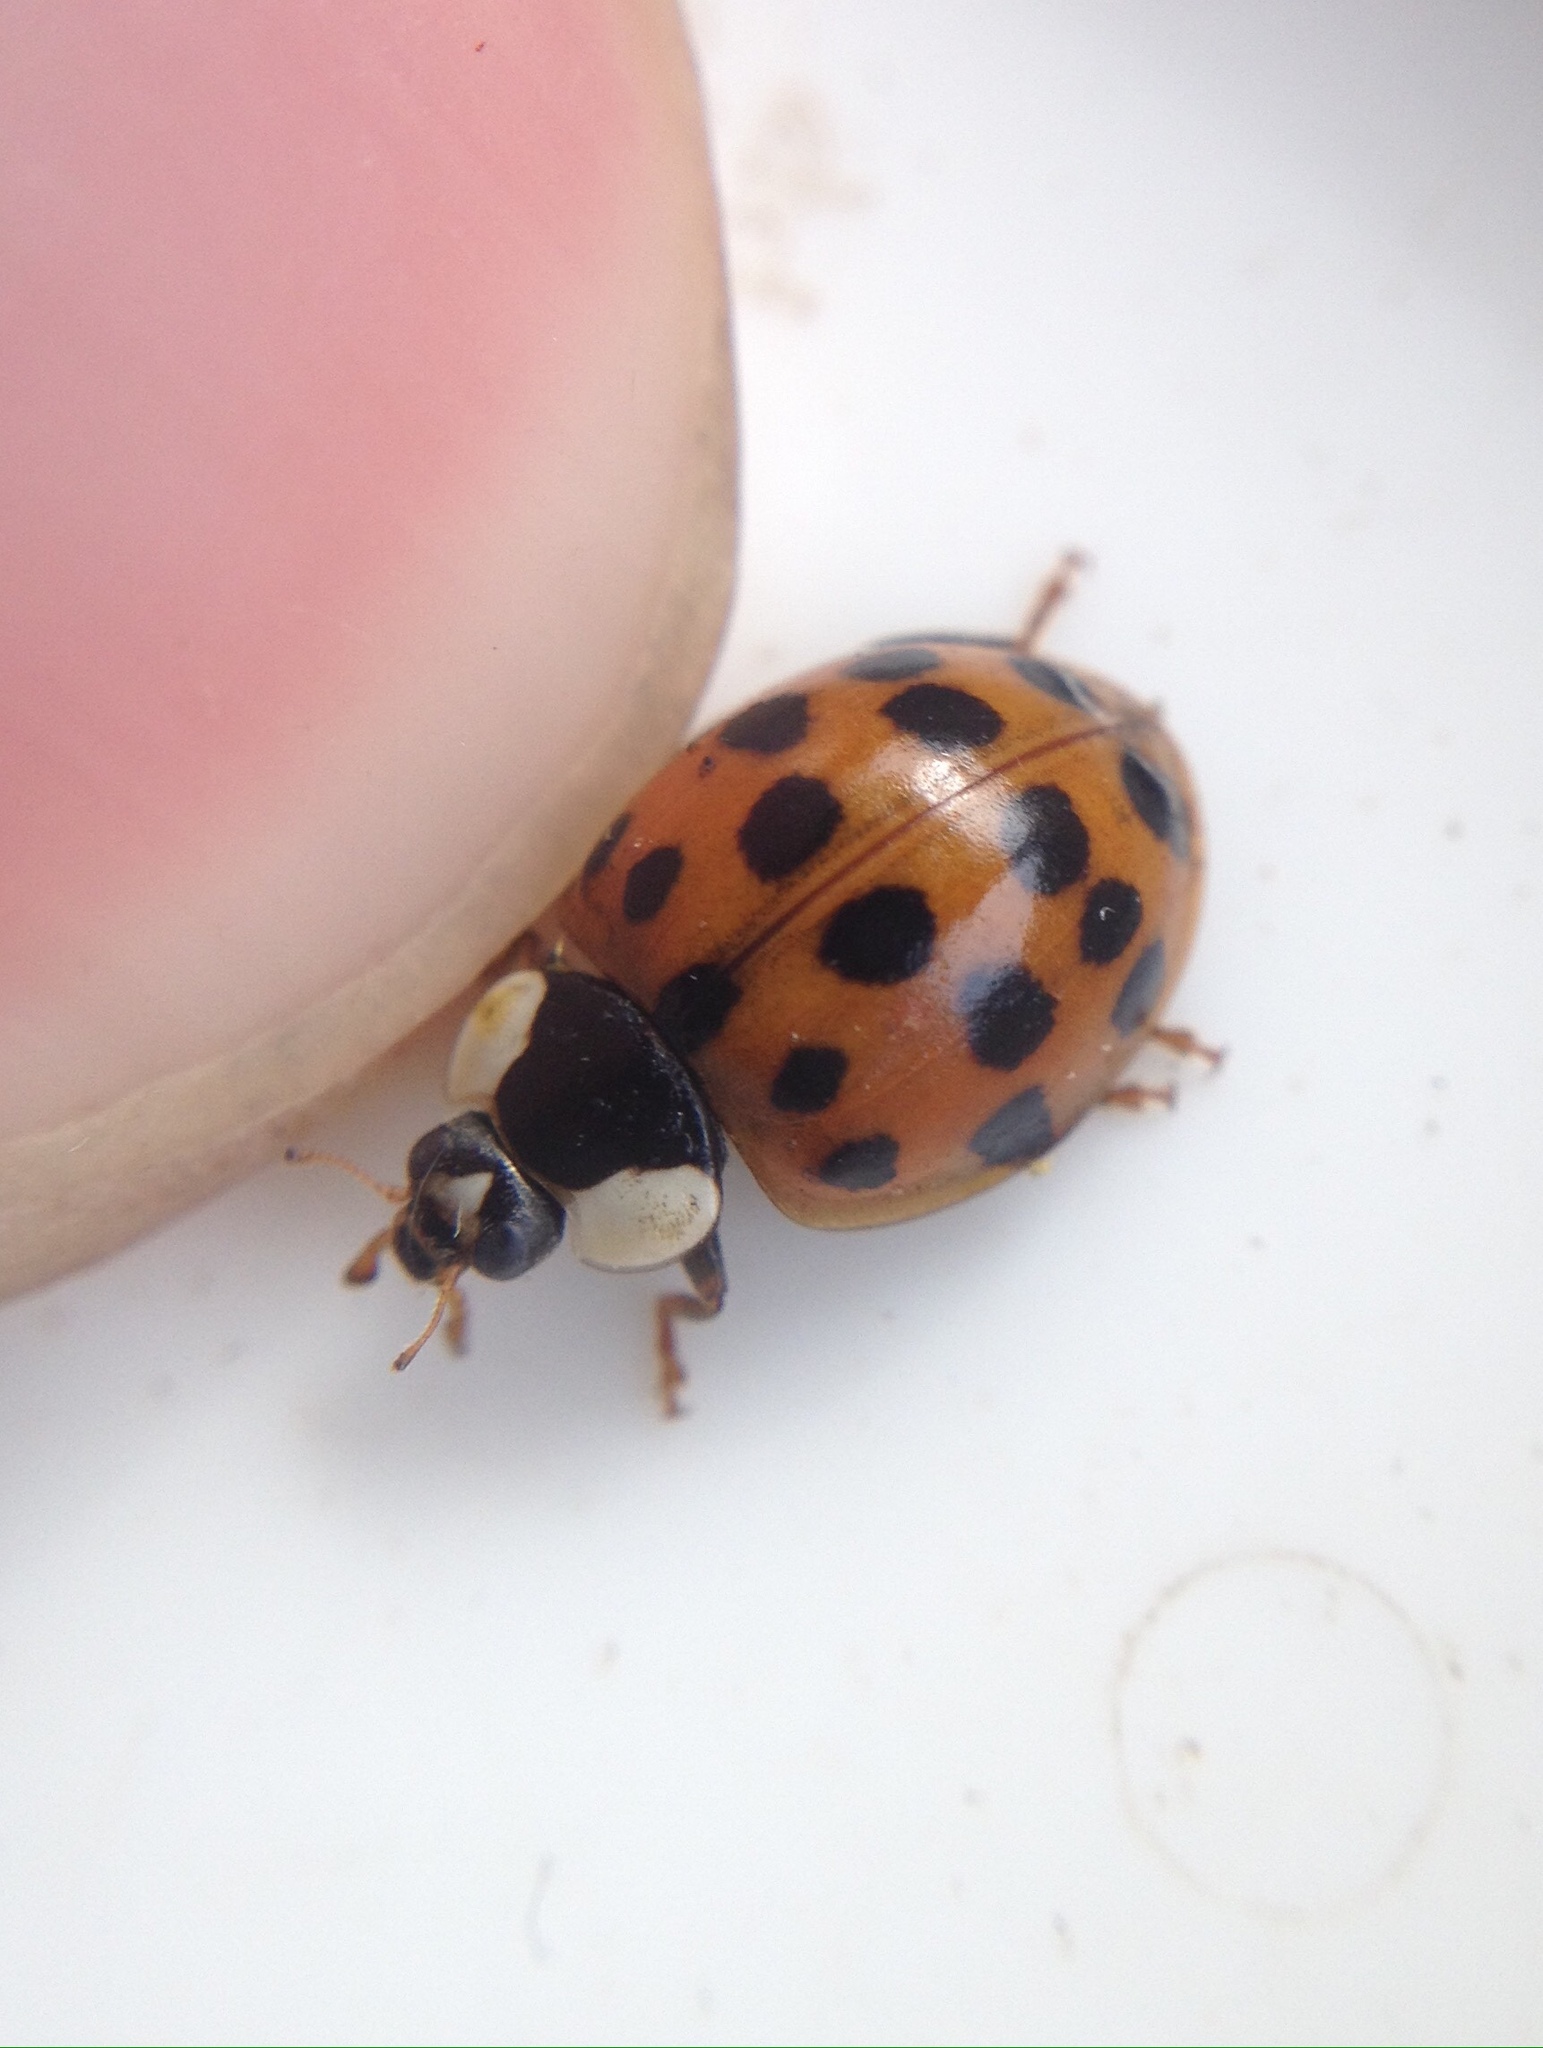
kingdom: Animalia
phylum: Arthropoda
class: Insecta
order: Coleoptera
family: Coccinellidae
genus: Harmonia
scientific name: Harmonia axyridis
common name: Harlequin ladybird
